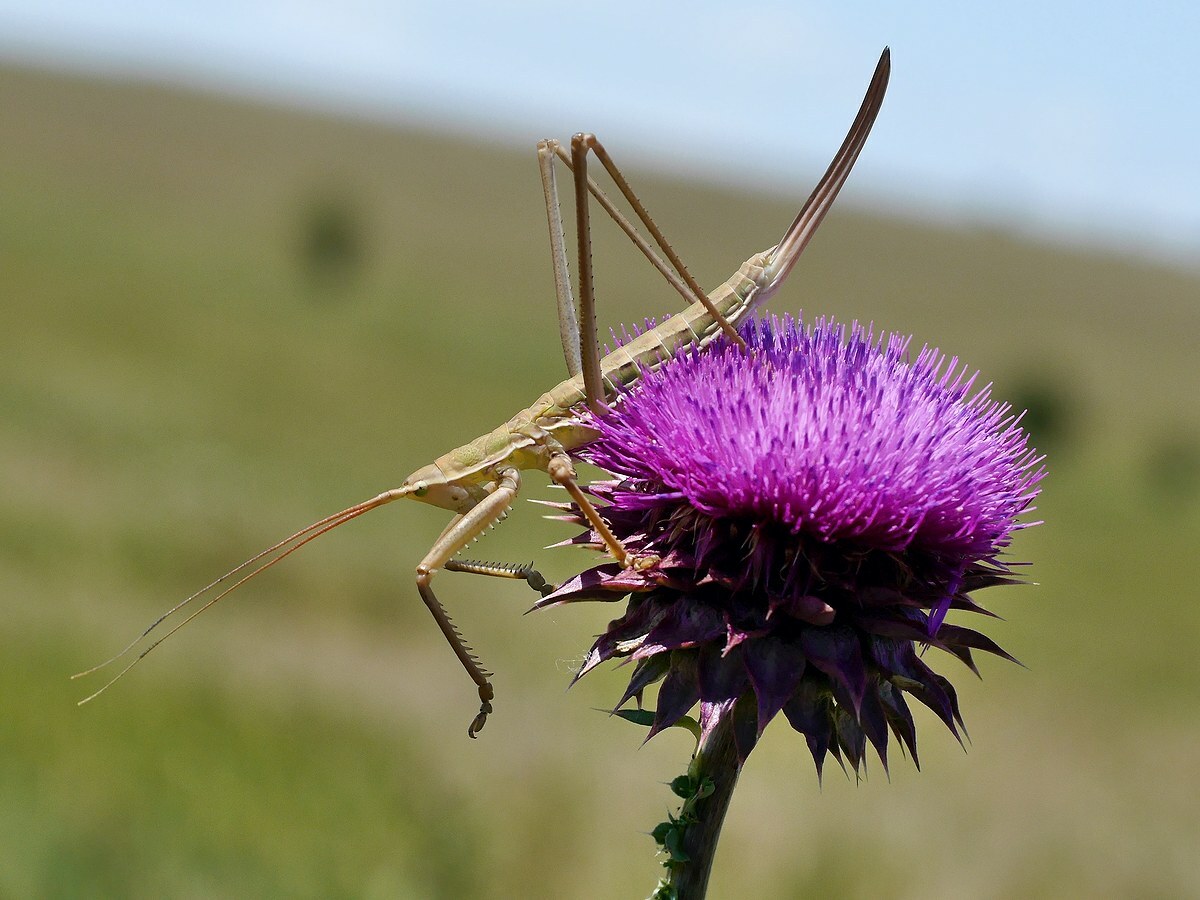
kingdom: Animalia
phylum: Arthropoda
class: Insecta
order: Orthoptera
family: Tettigoniidae
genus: Saga
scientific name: Saga pedo
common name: Common predatory bush-cricket
